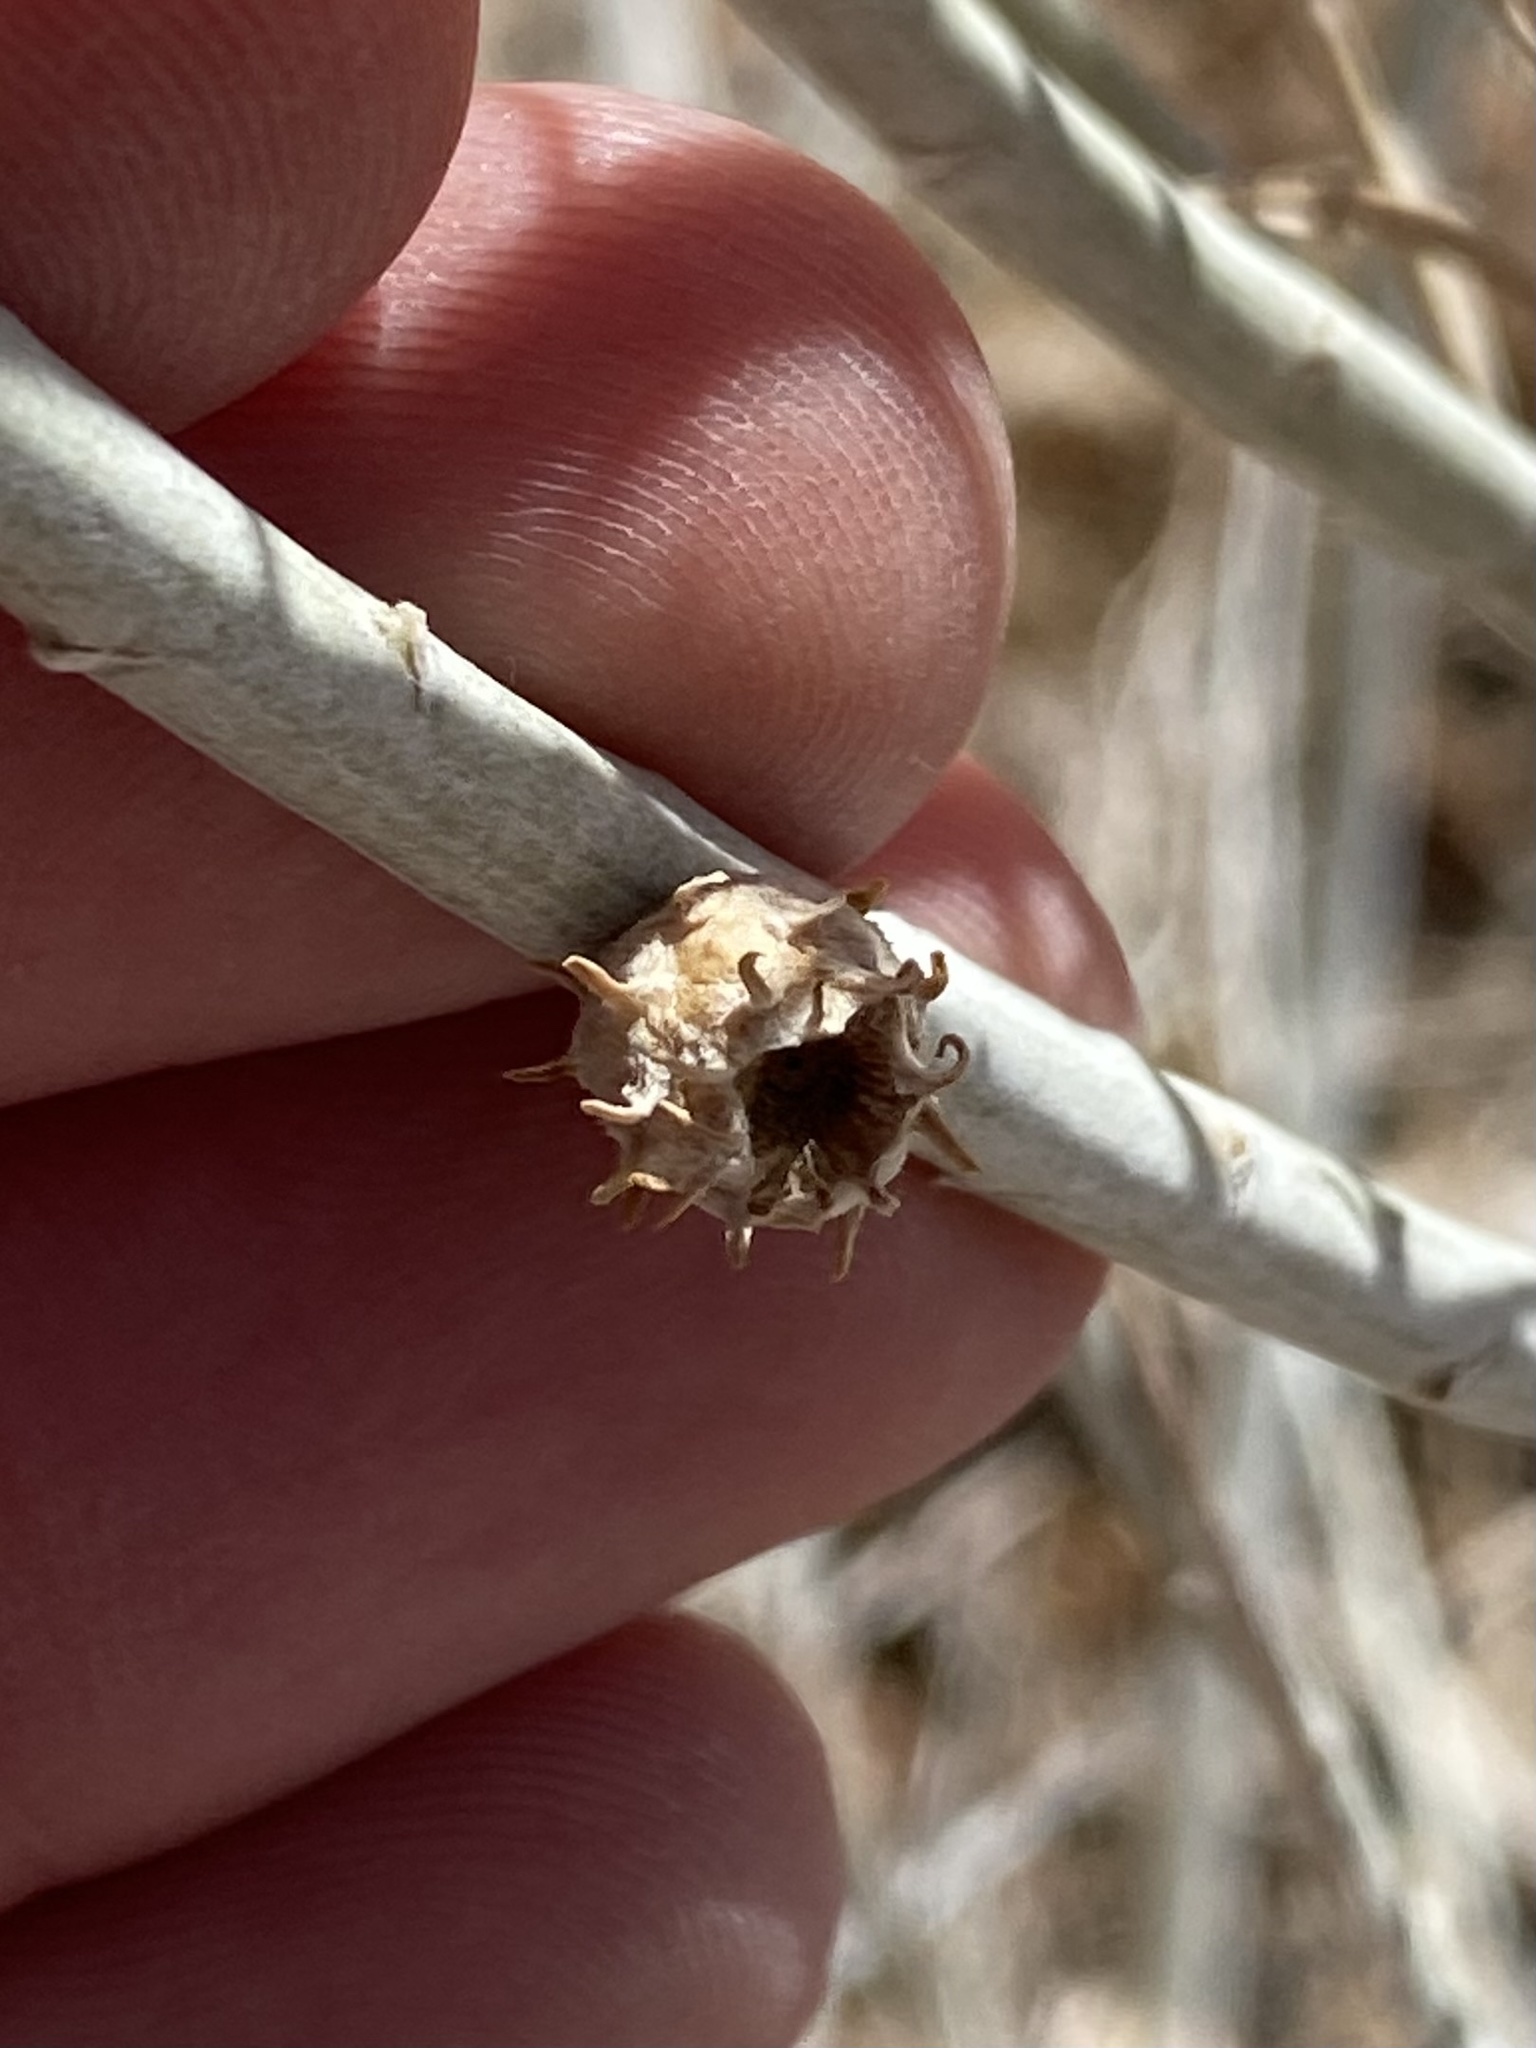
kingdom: Animalia
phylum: Arthropoda
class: Insecta
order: Diptera
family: Cecidomyiidae
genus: Rhopalomyia
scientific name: Rhopalomyia utahensis
